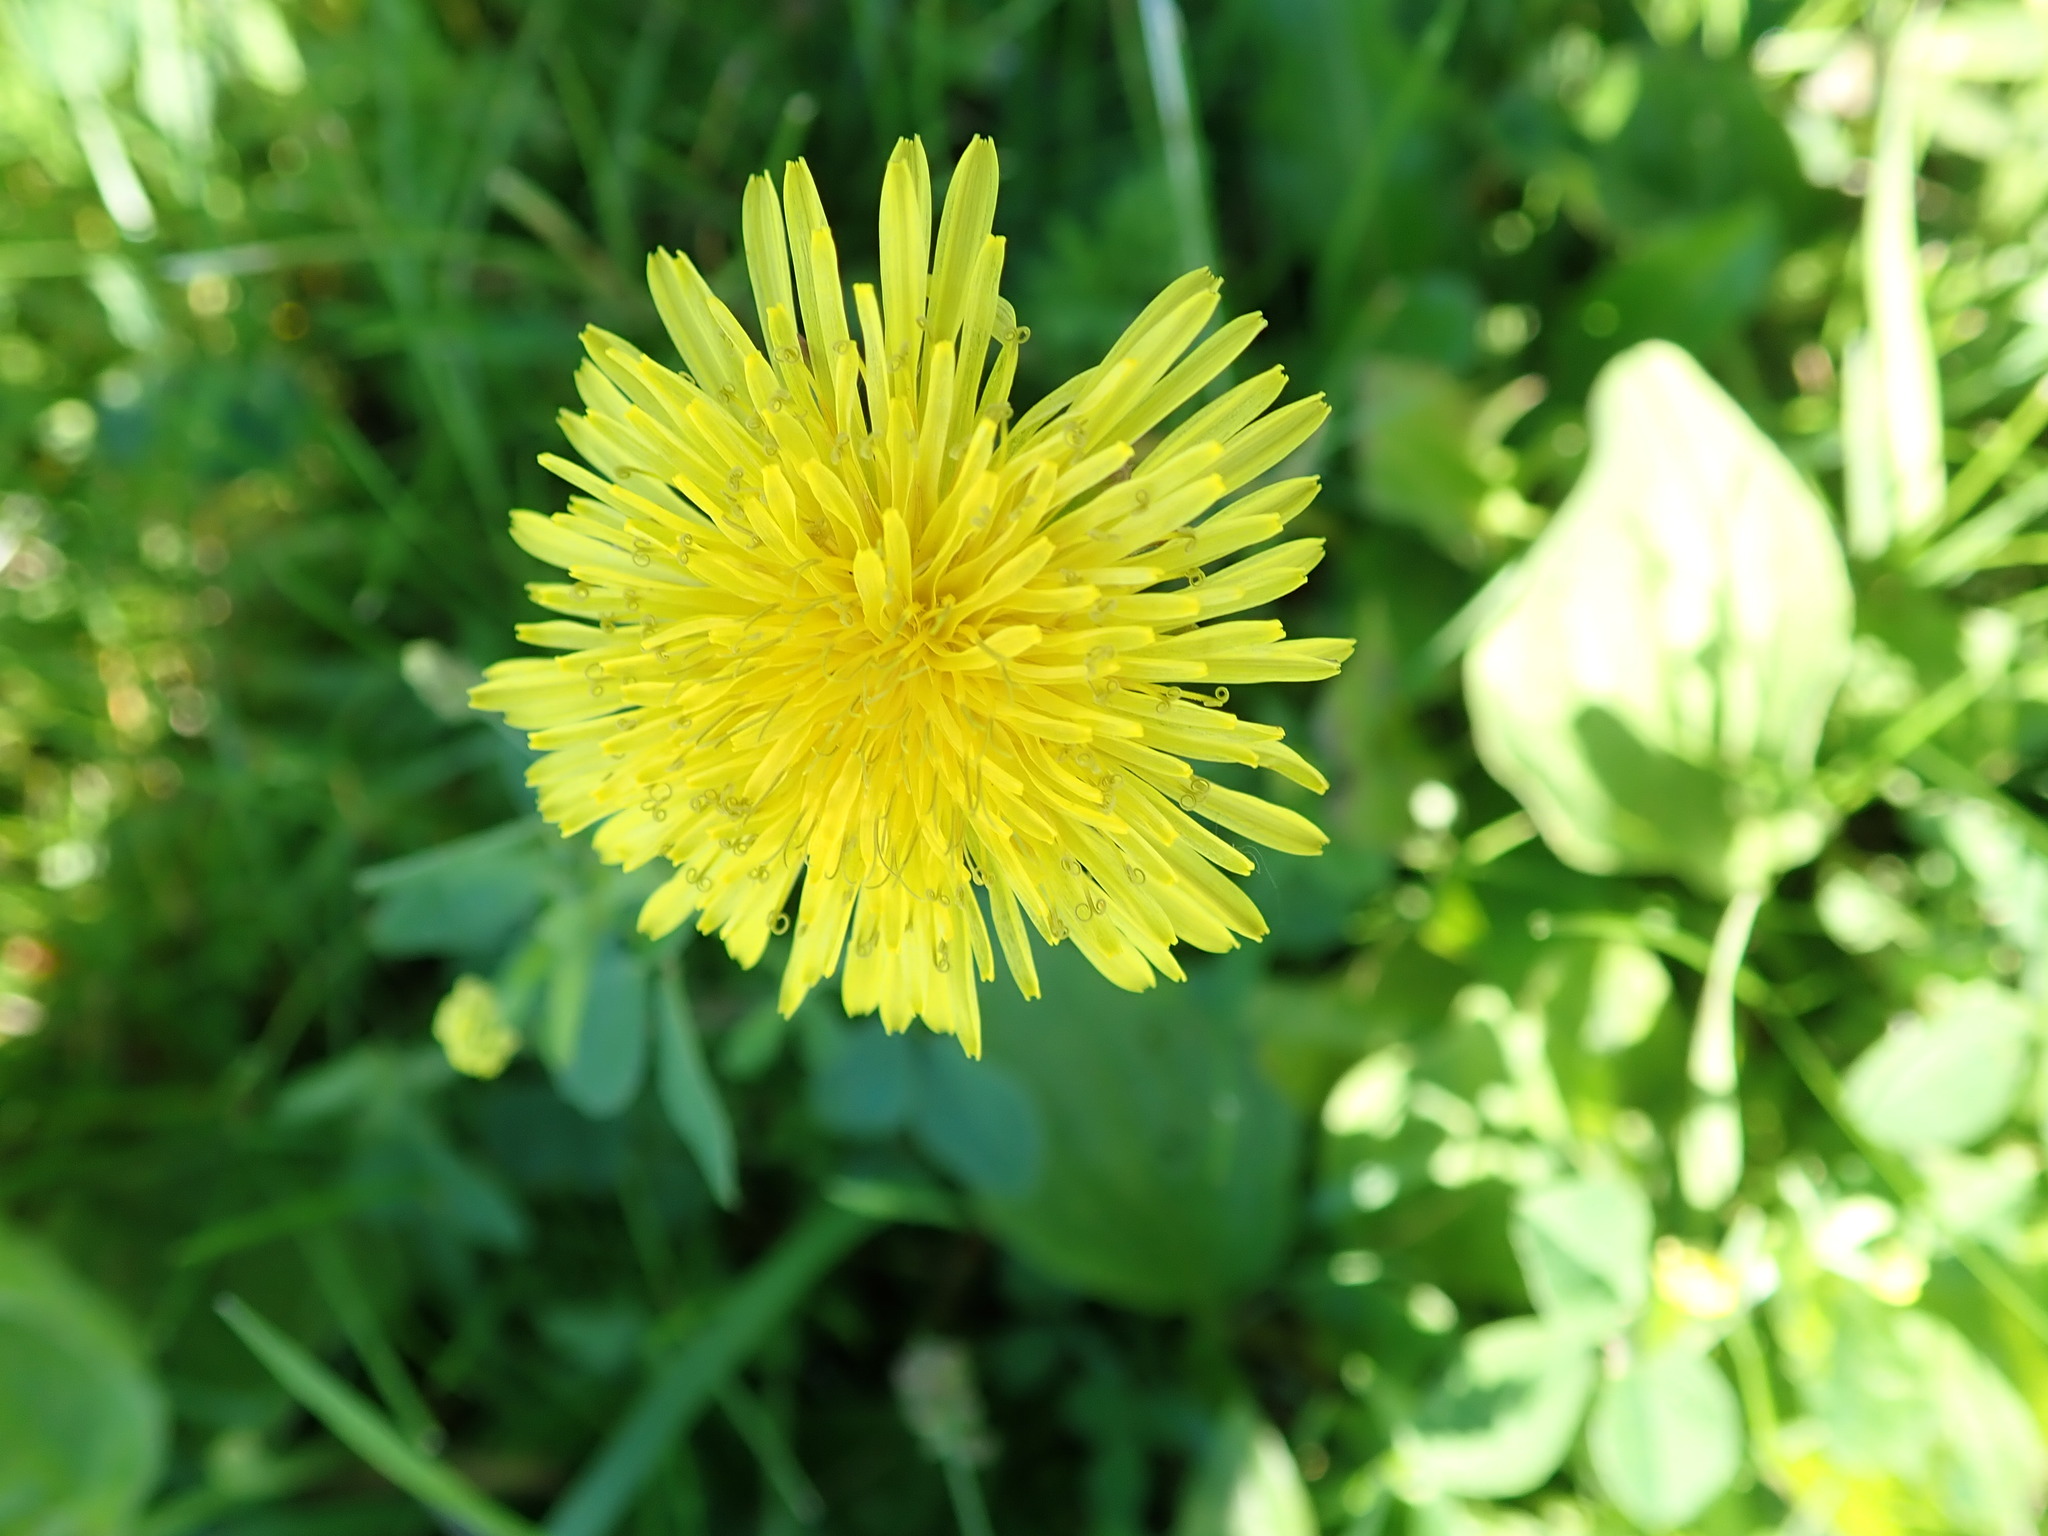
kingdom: Plantae
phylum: Tracheophyta
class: Magnoliopsida
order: Asterales
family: Asteraceae
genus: Taraxacum
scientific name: Taraxacum officinale
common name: Common dandelion
